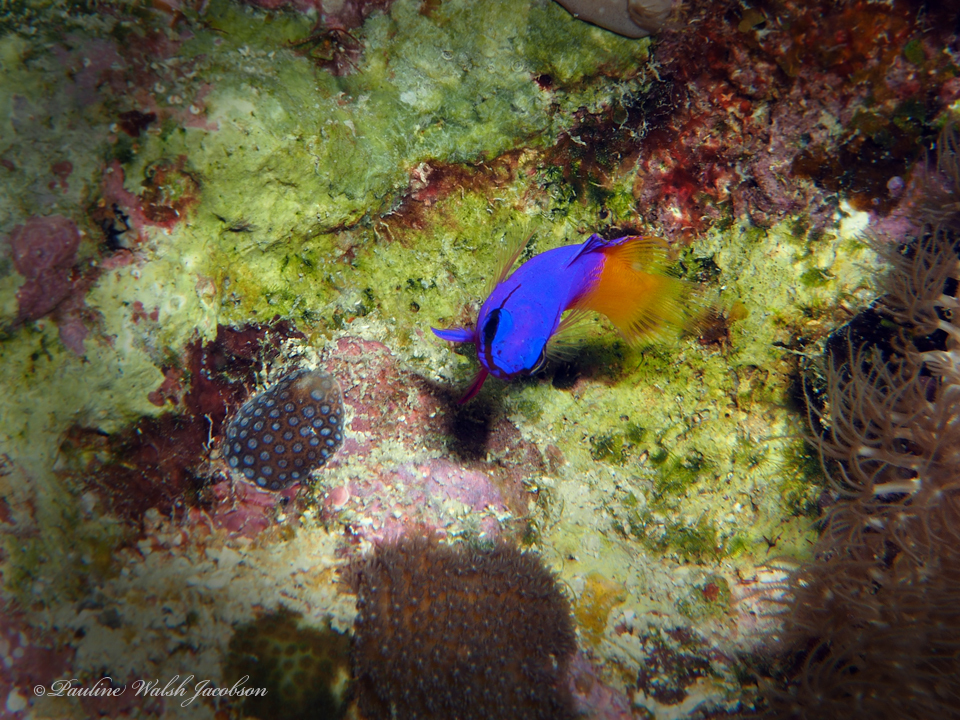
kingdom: Animalia
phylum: Chordata
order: Perciformes
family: Grammatidae
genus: Gramma
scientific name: Gramma loreto
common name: Fairy basslet
